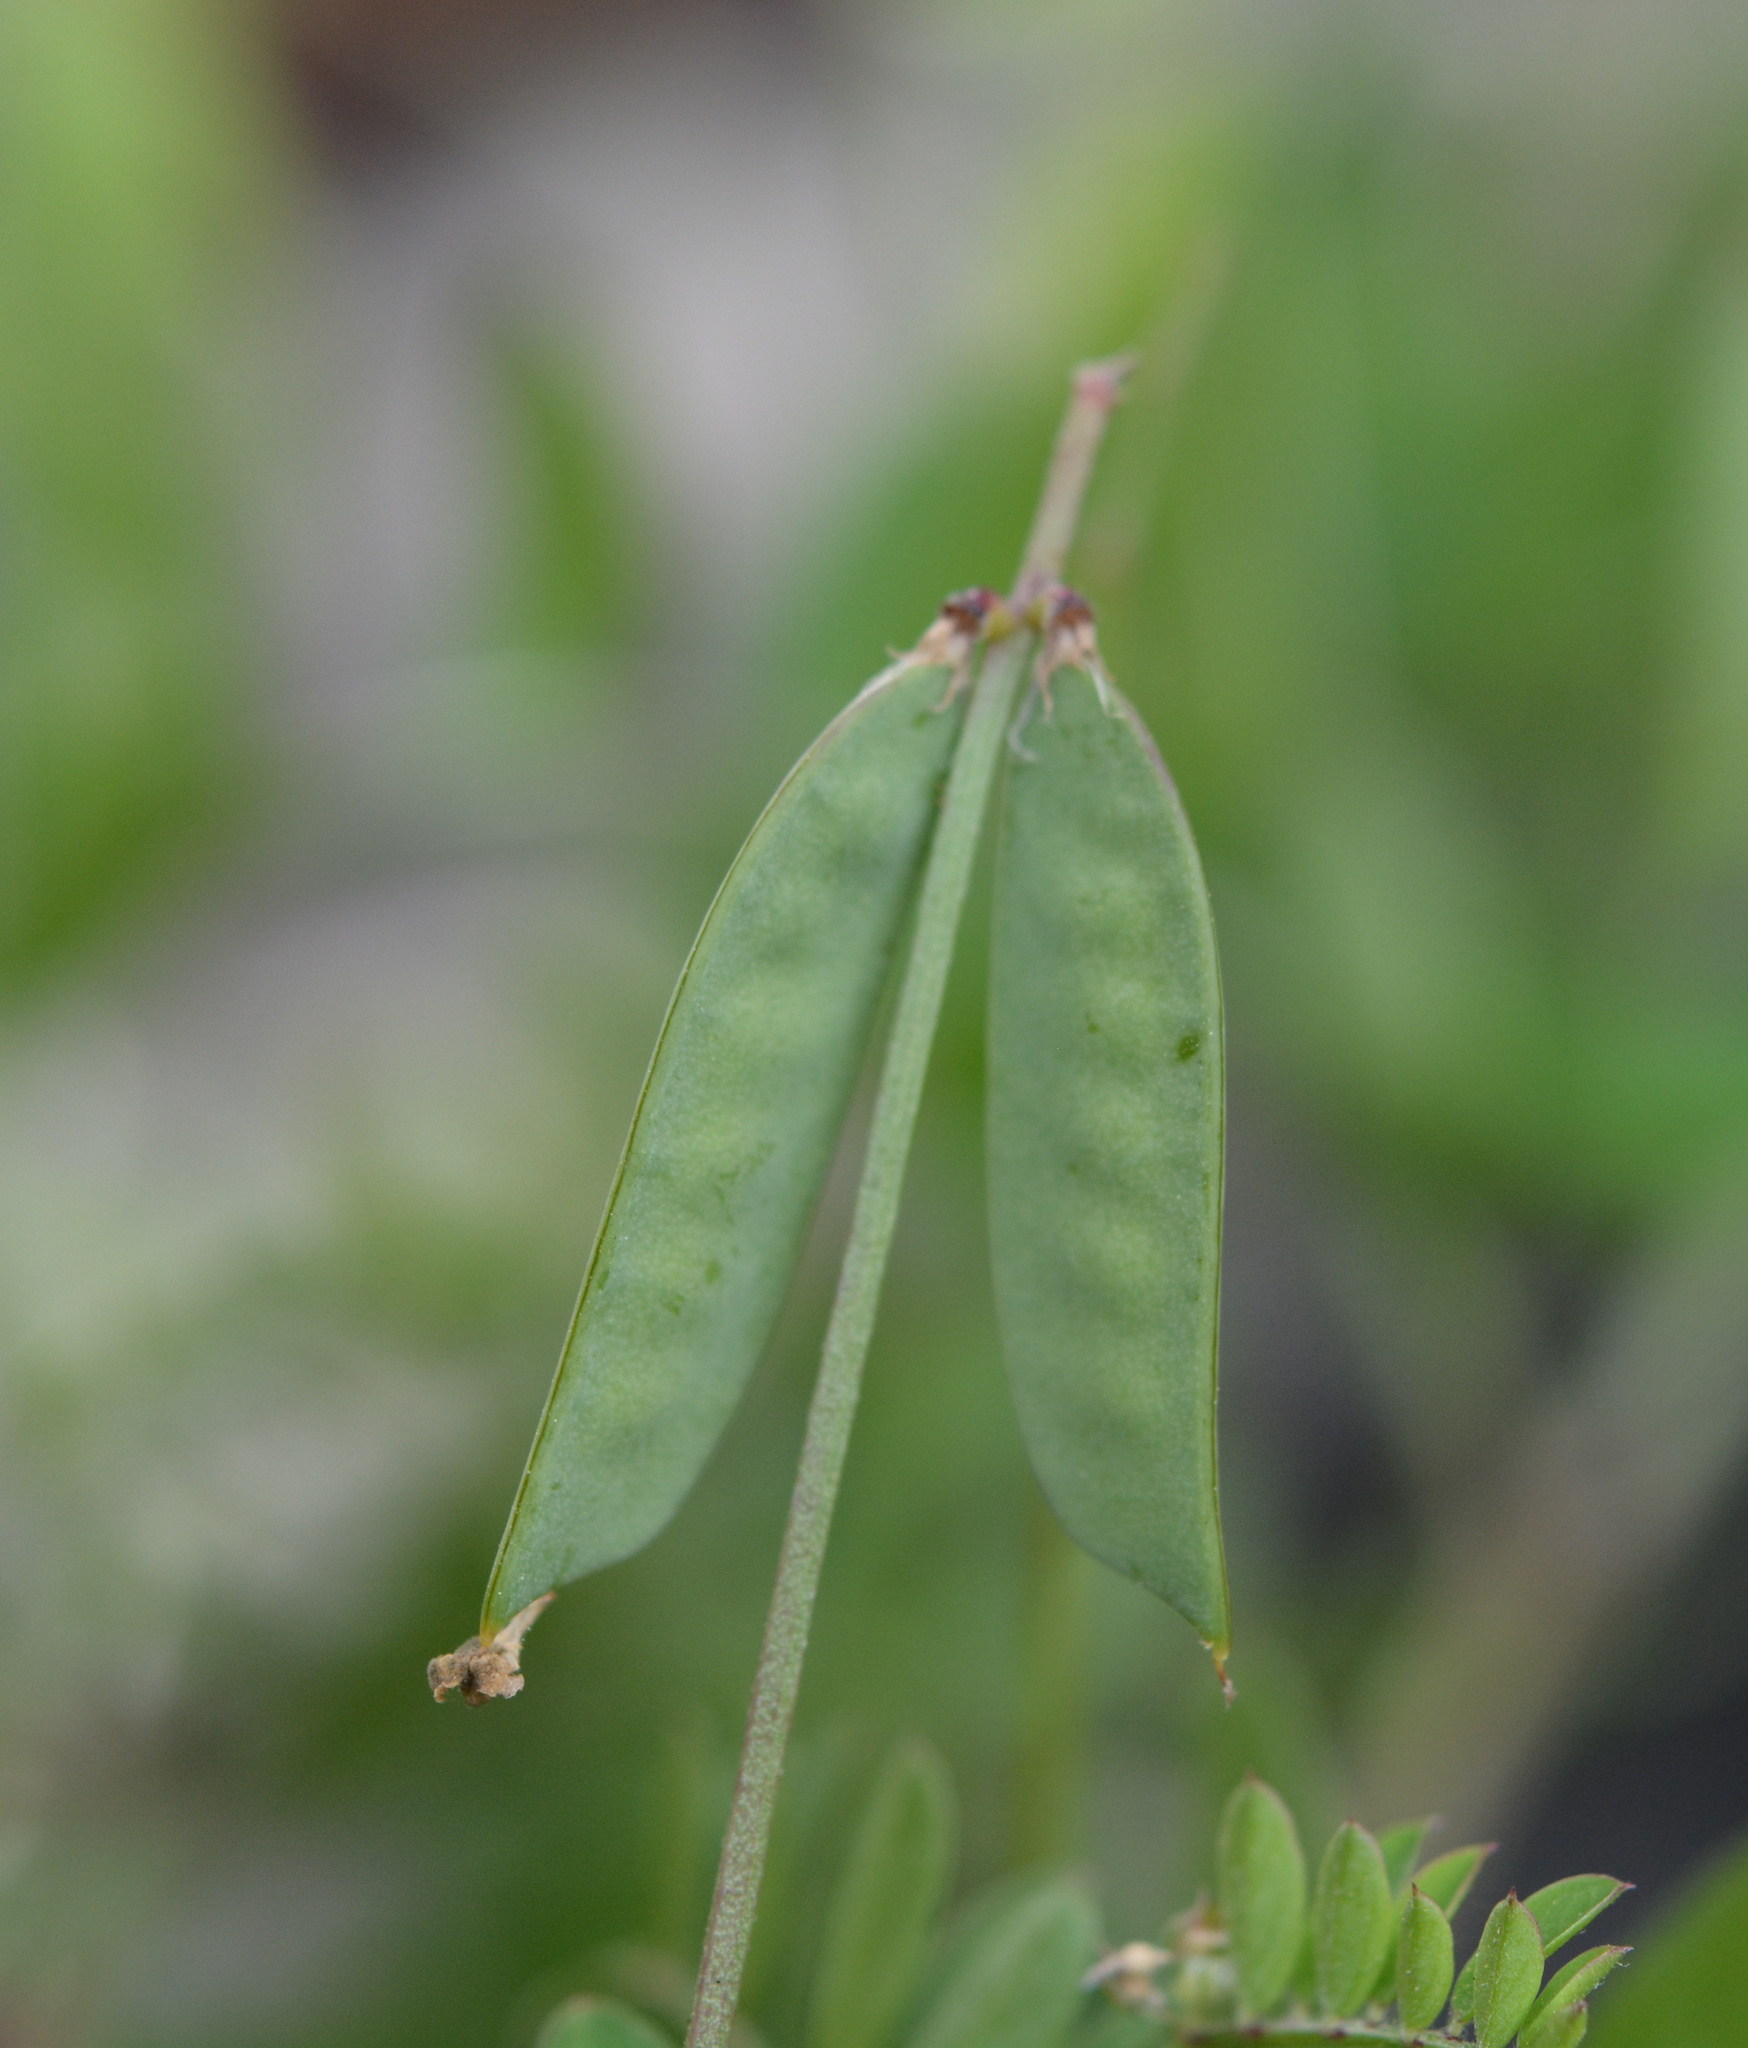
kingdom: Plantae
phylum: Tracheophyta
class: Magnoliopsida
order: Fabales
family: Fabaceae
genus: Vicia
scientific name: Vicia ludoviciana
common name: Louisiana vetch
